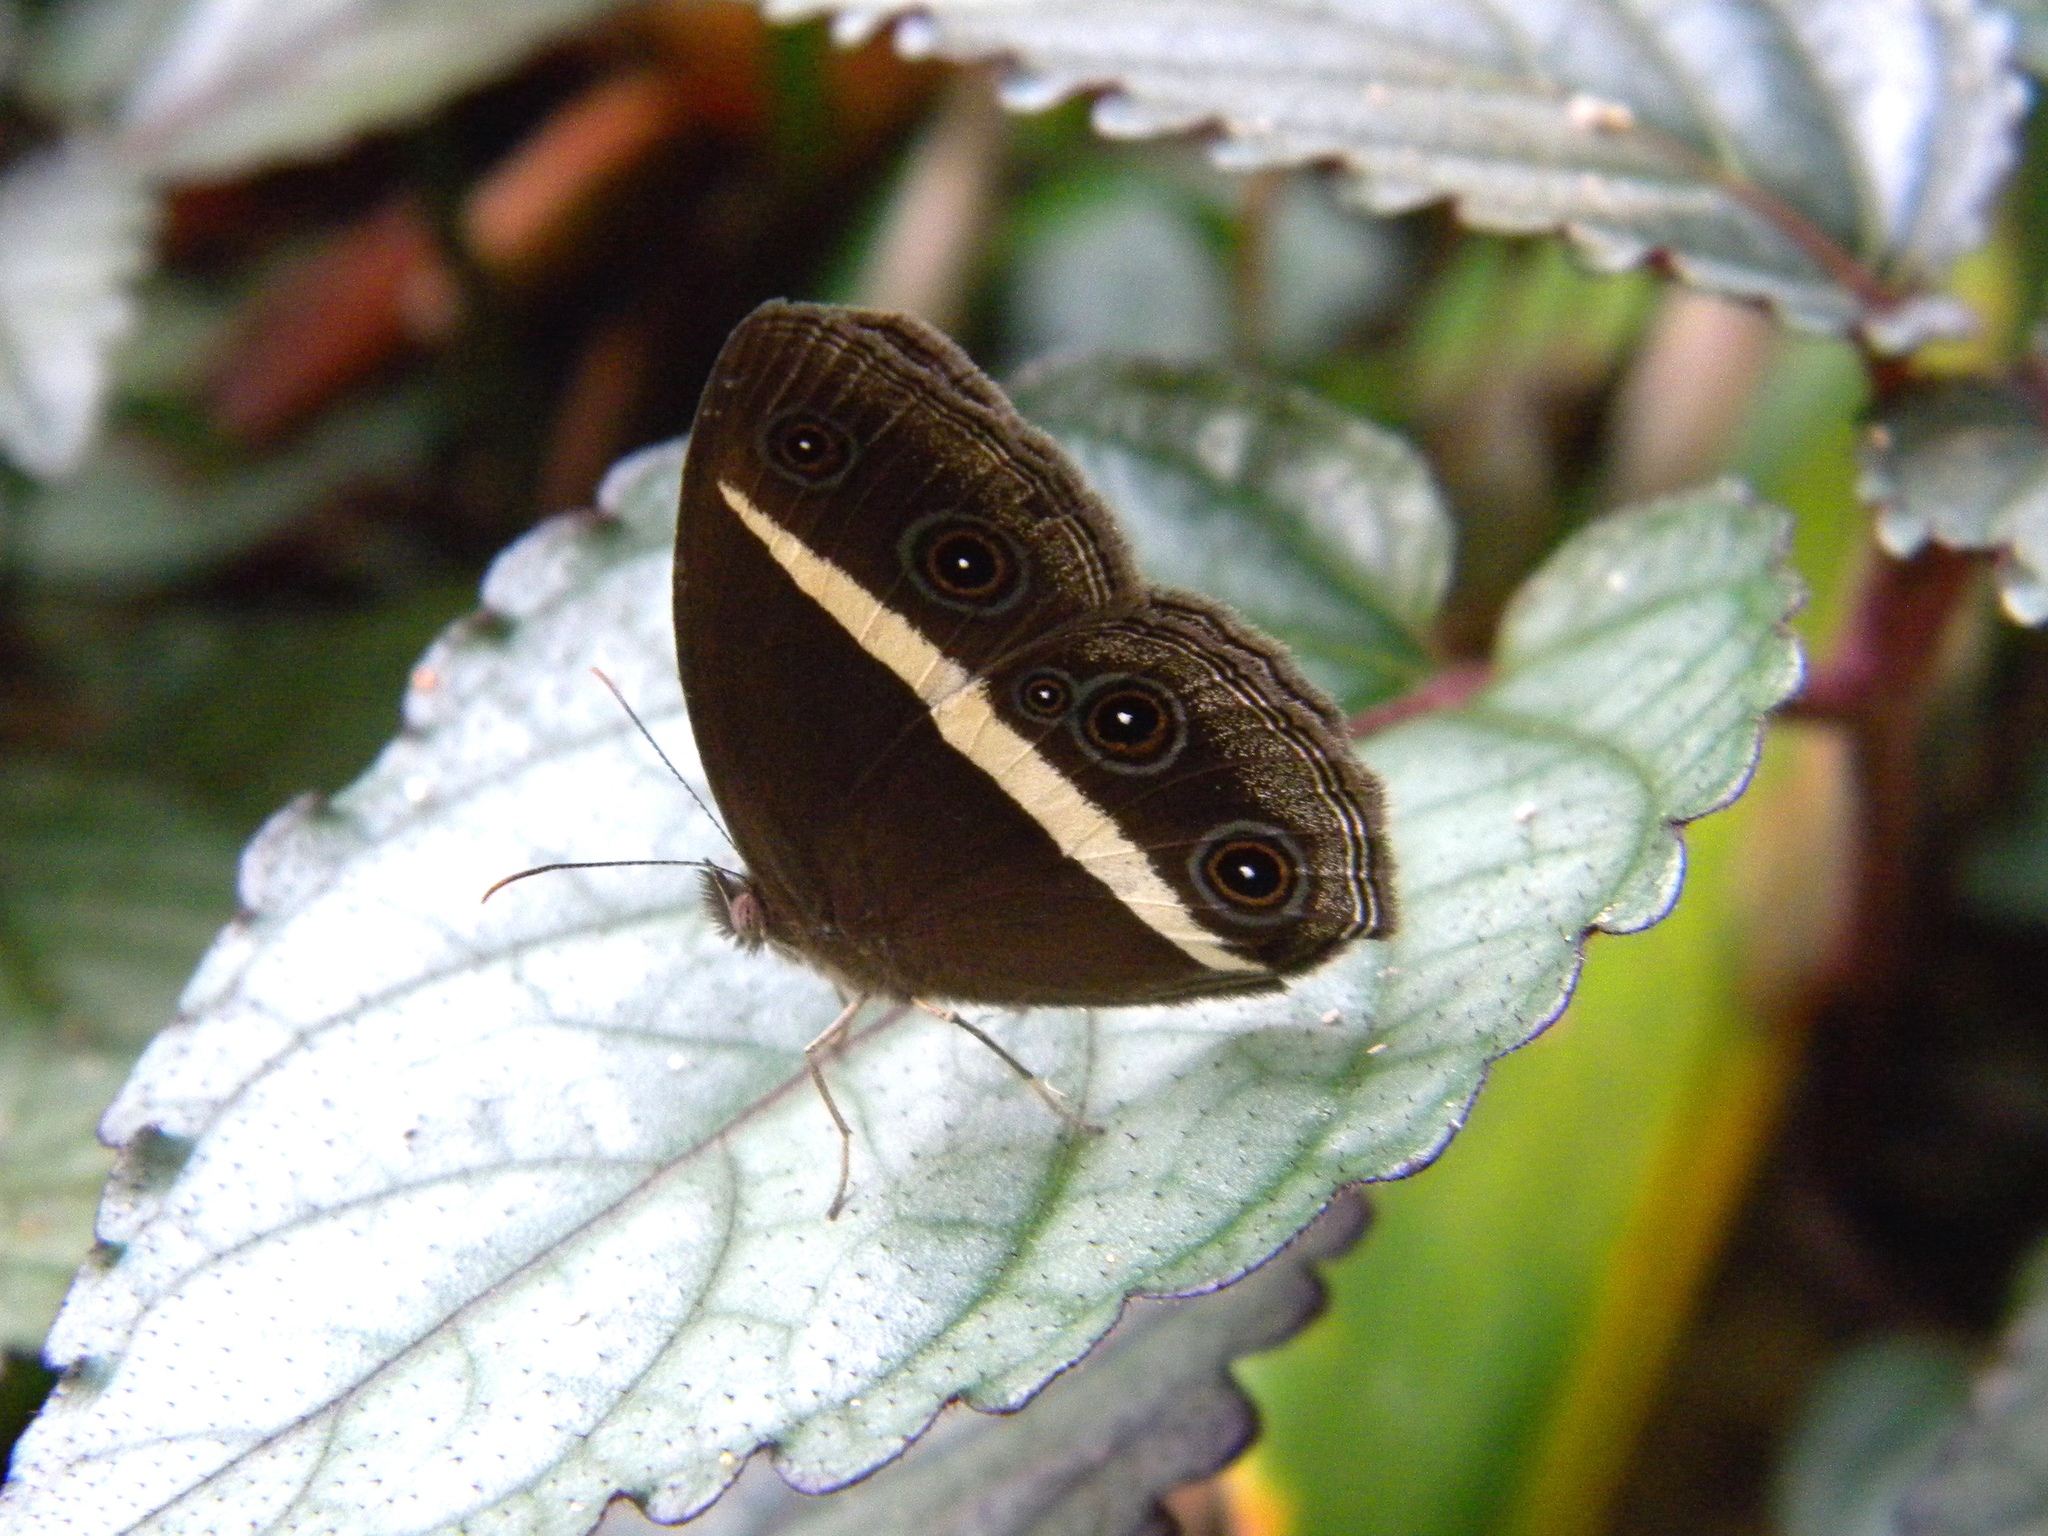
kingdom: Animalia
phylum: Arthropoda
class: Insecta
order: Lepidoptera
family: Nymphalidae
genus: Orsotriaena
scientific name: Orsotriaena medus
